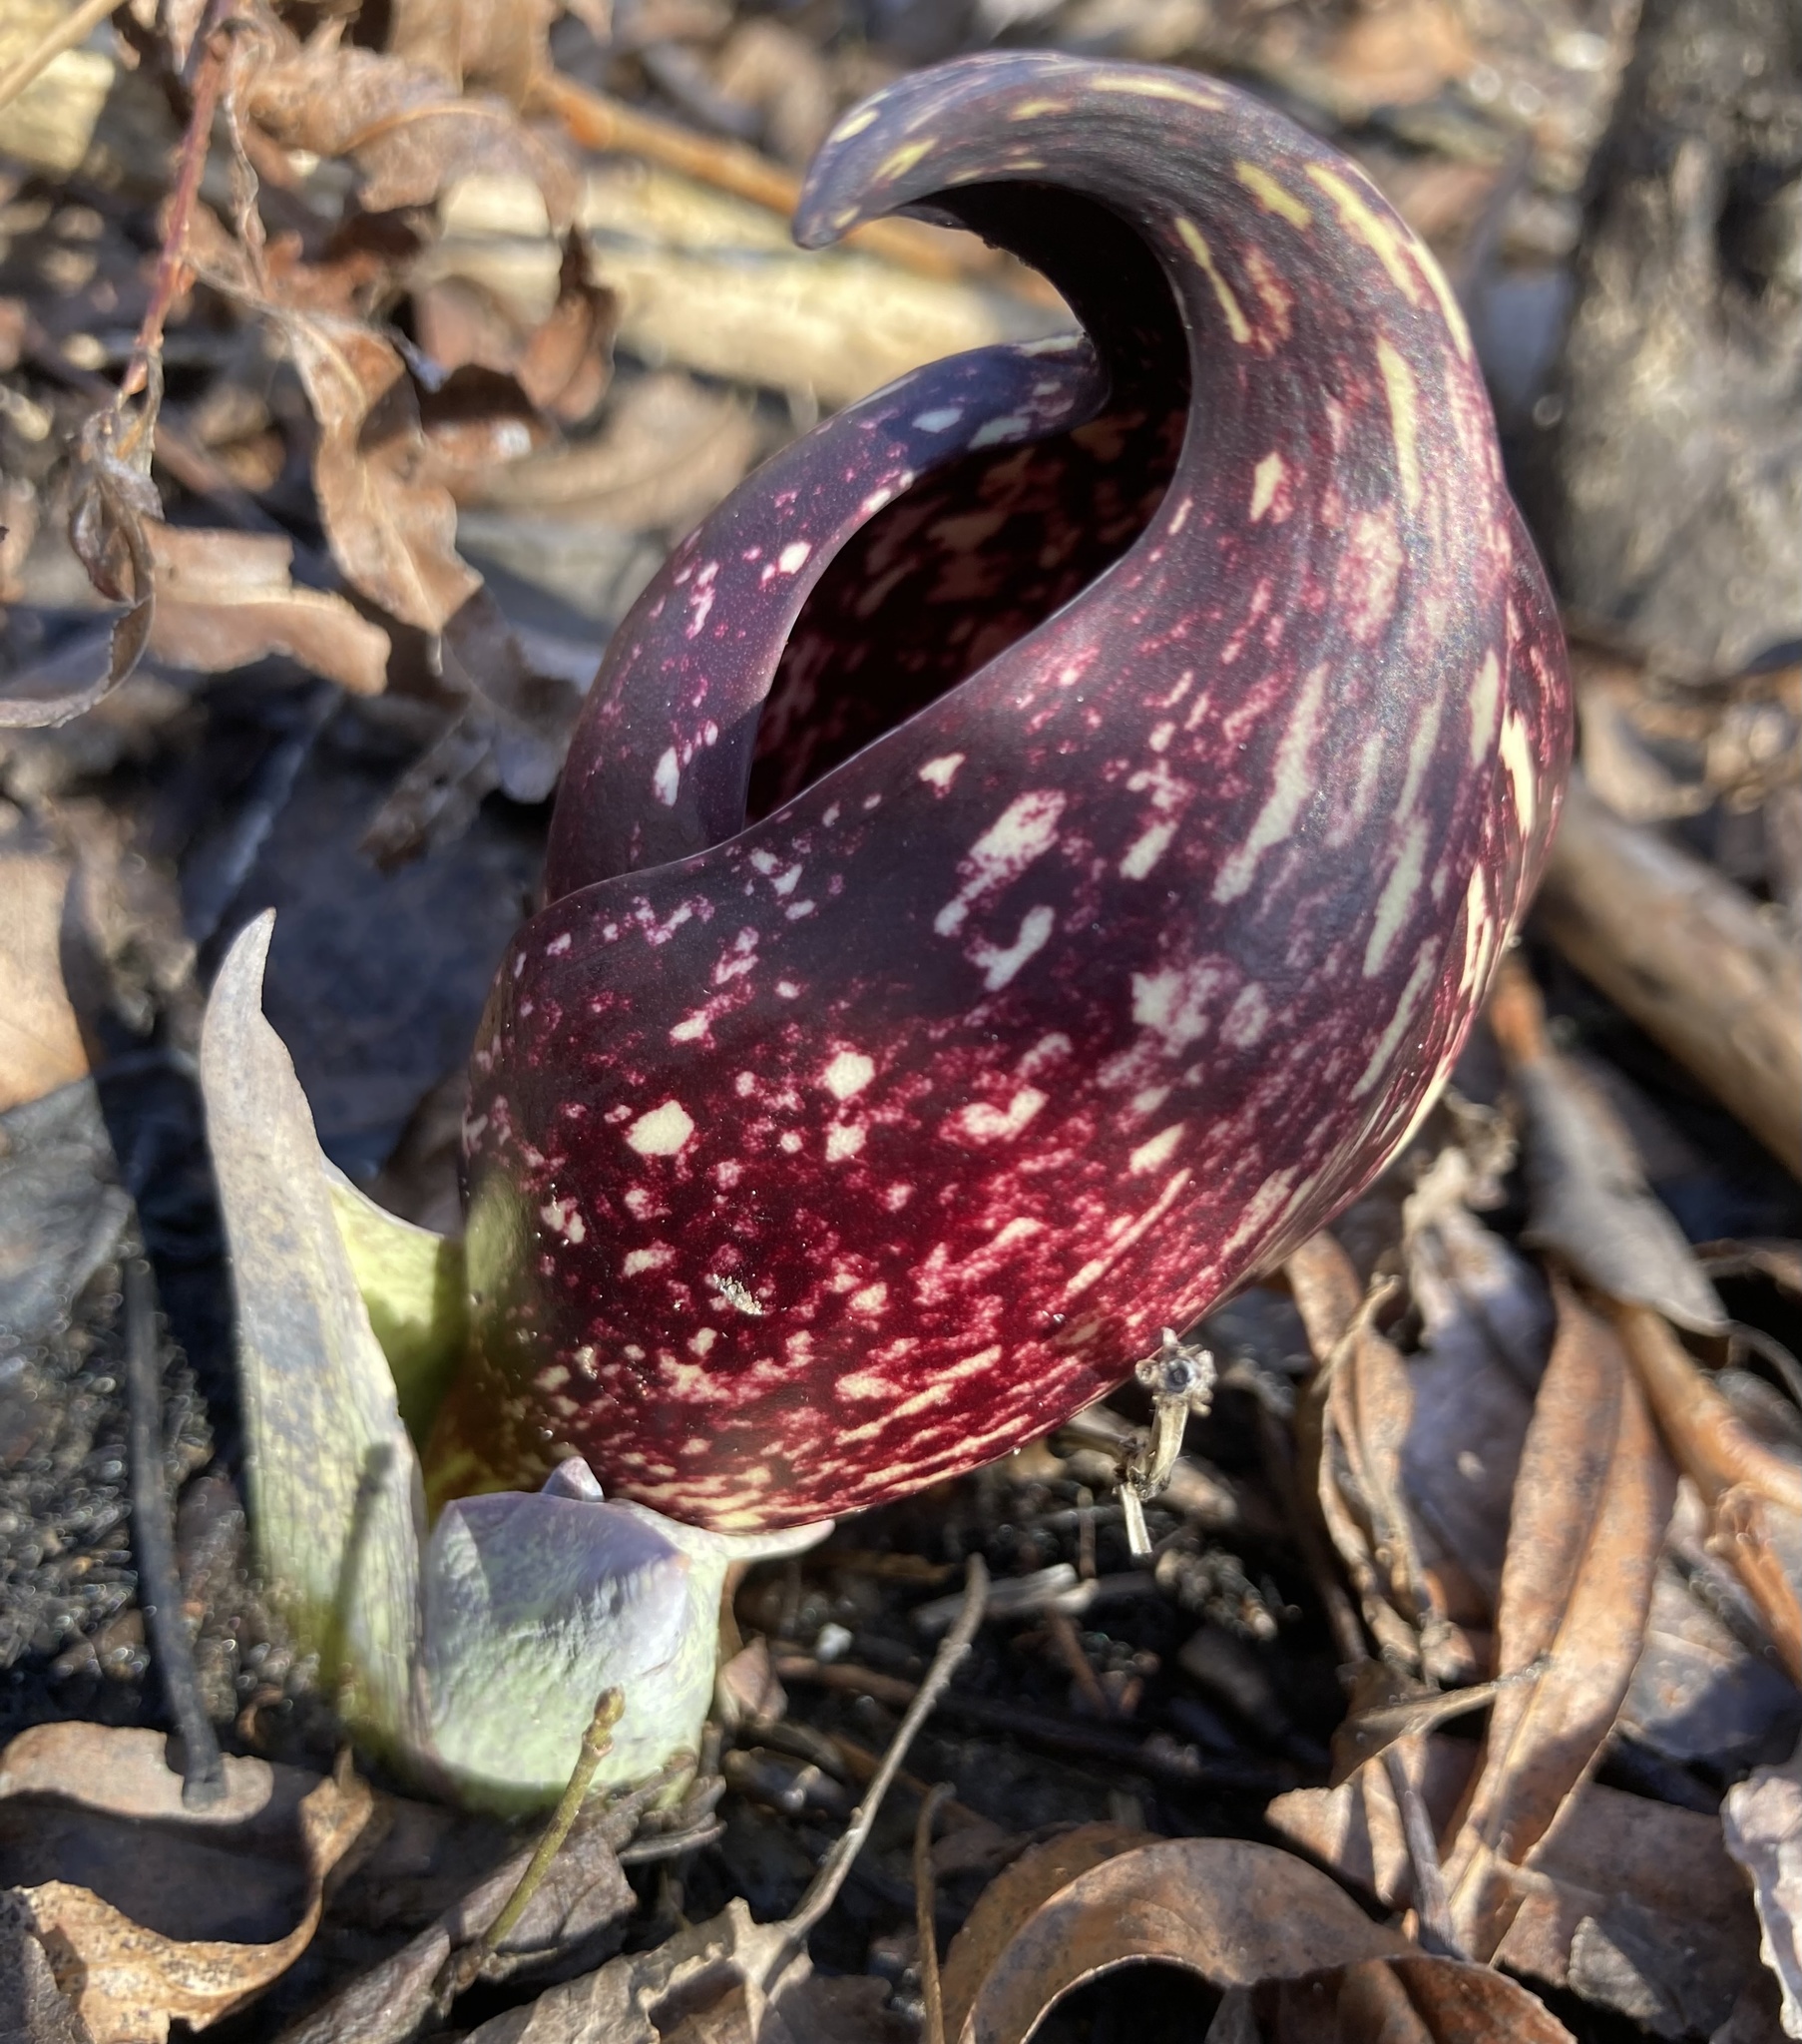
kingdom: Plantae
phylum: Tracheophyta
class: Liliopsida
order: Alismatales
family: Araceae
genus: Symplocarpus
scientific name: Symplocarpus foetidus
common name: Eastern skunk cabbage
